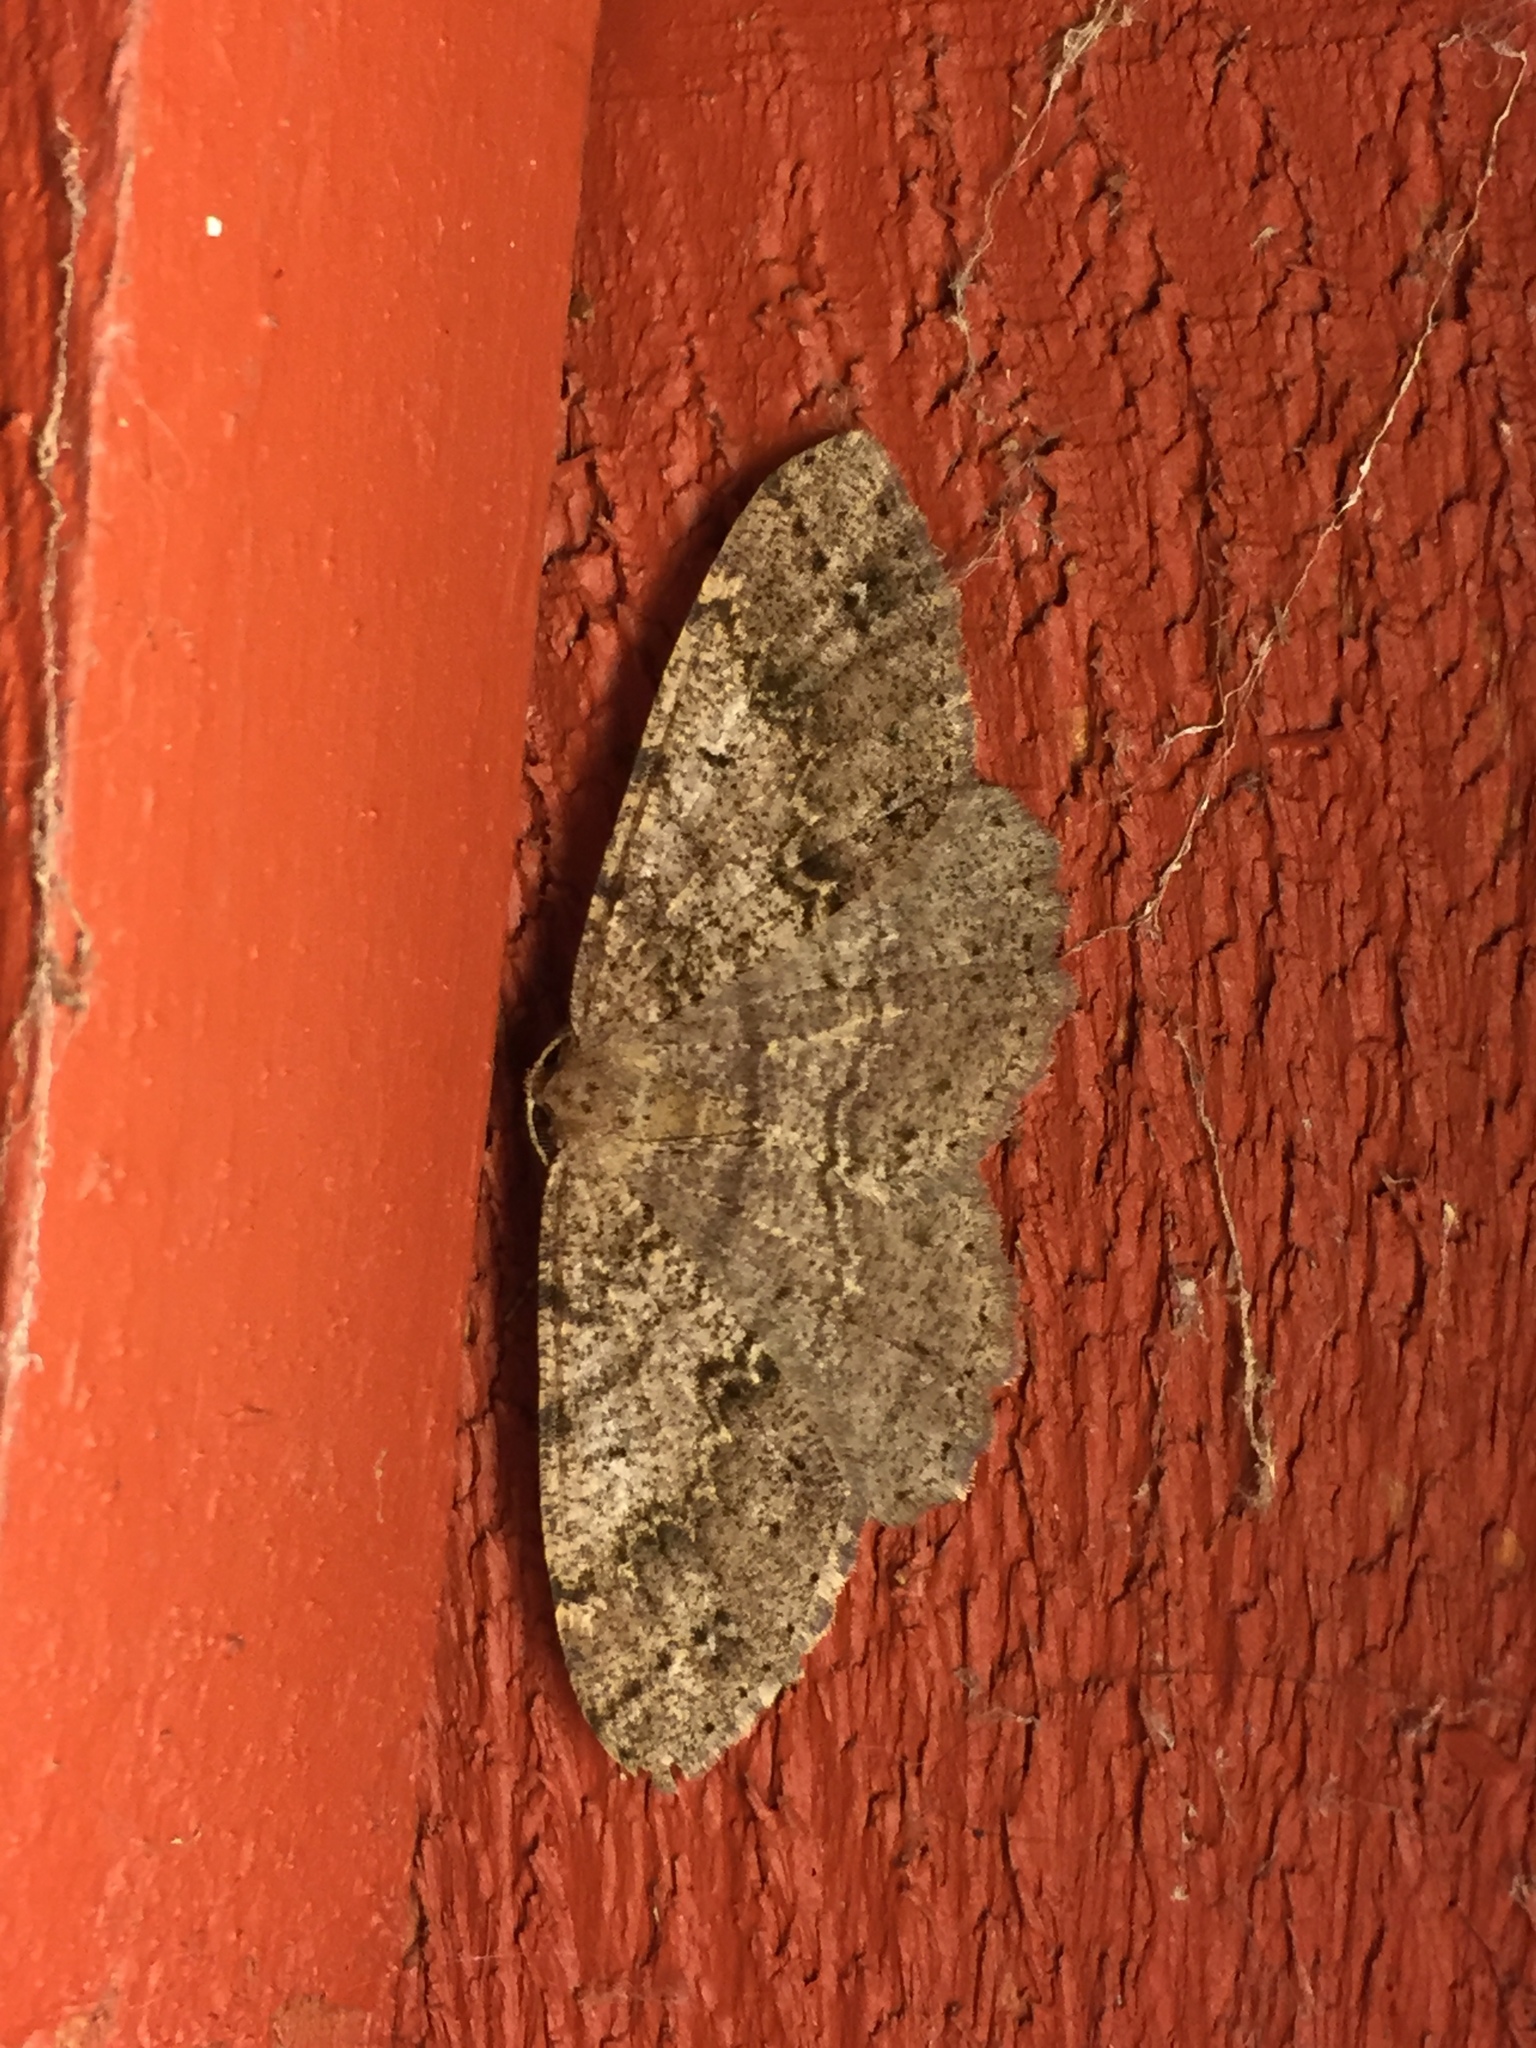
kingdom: Animalia
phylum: Arthropoda
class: Insecta
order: Lepidoptera
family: Geometridae
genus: Melanolophia
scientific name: Melanolophia imitata
